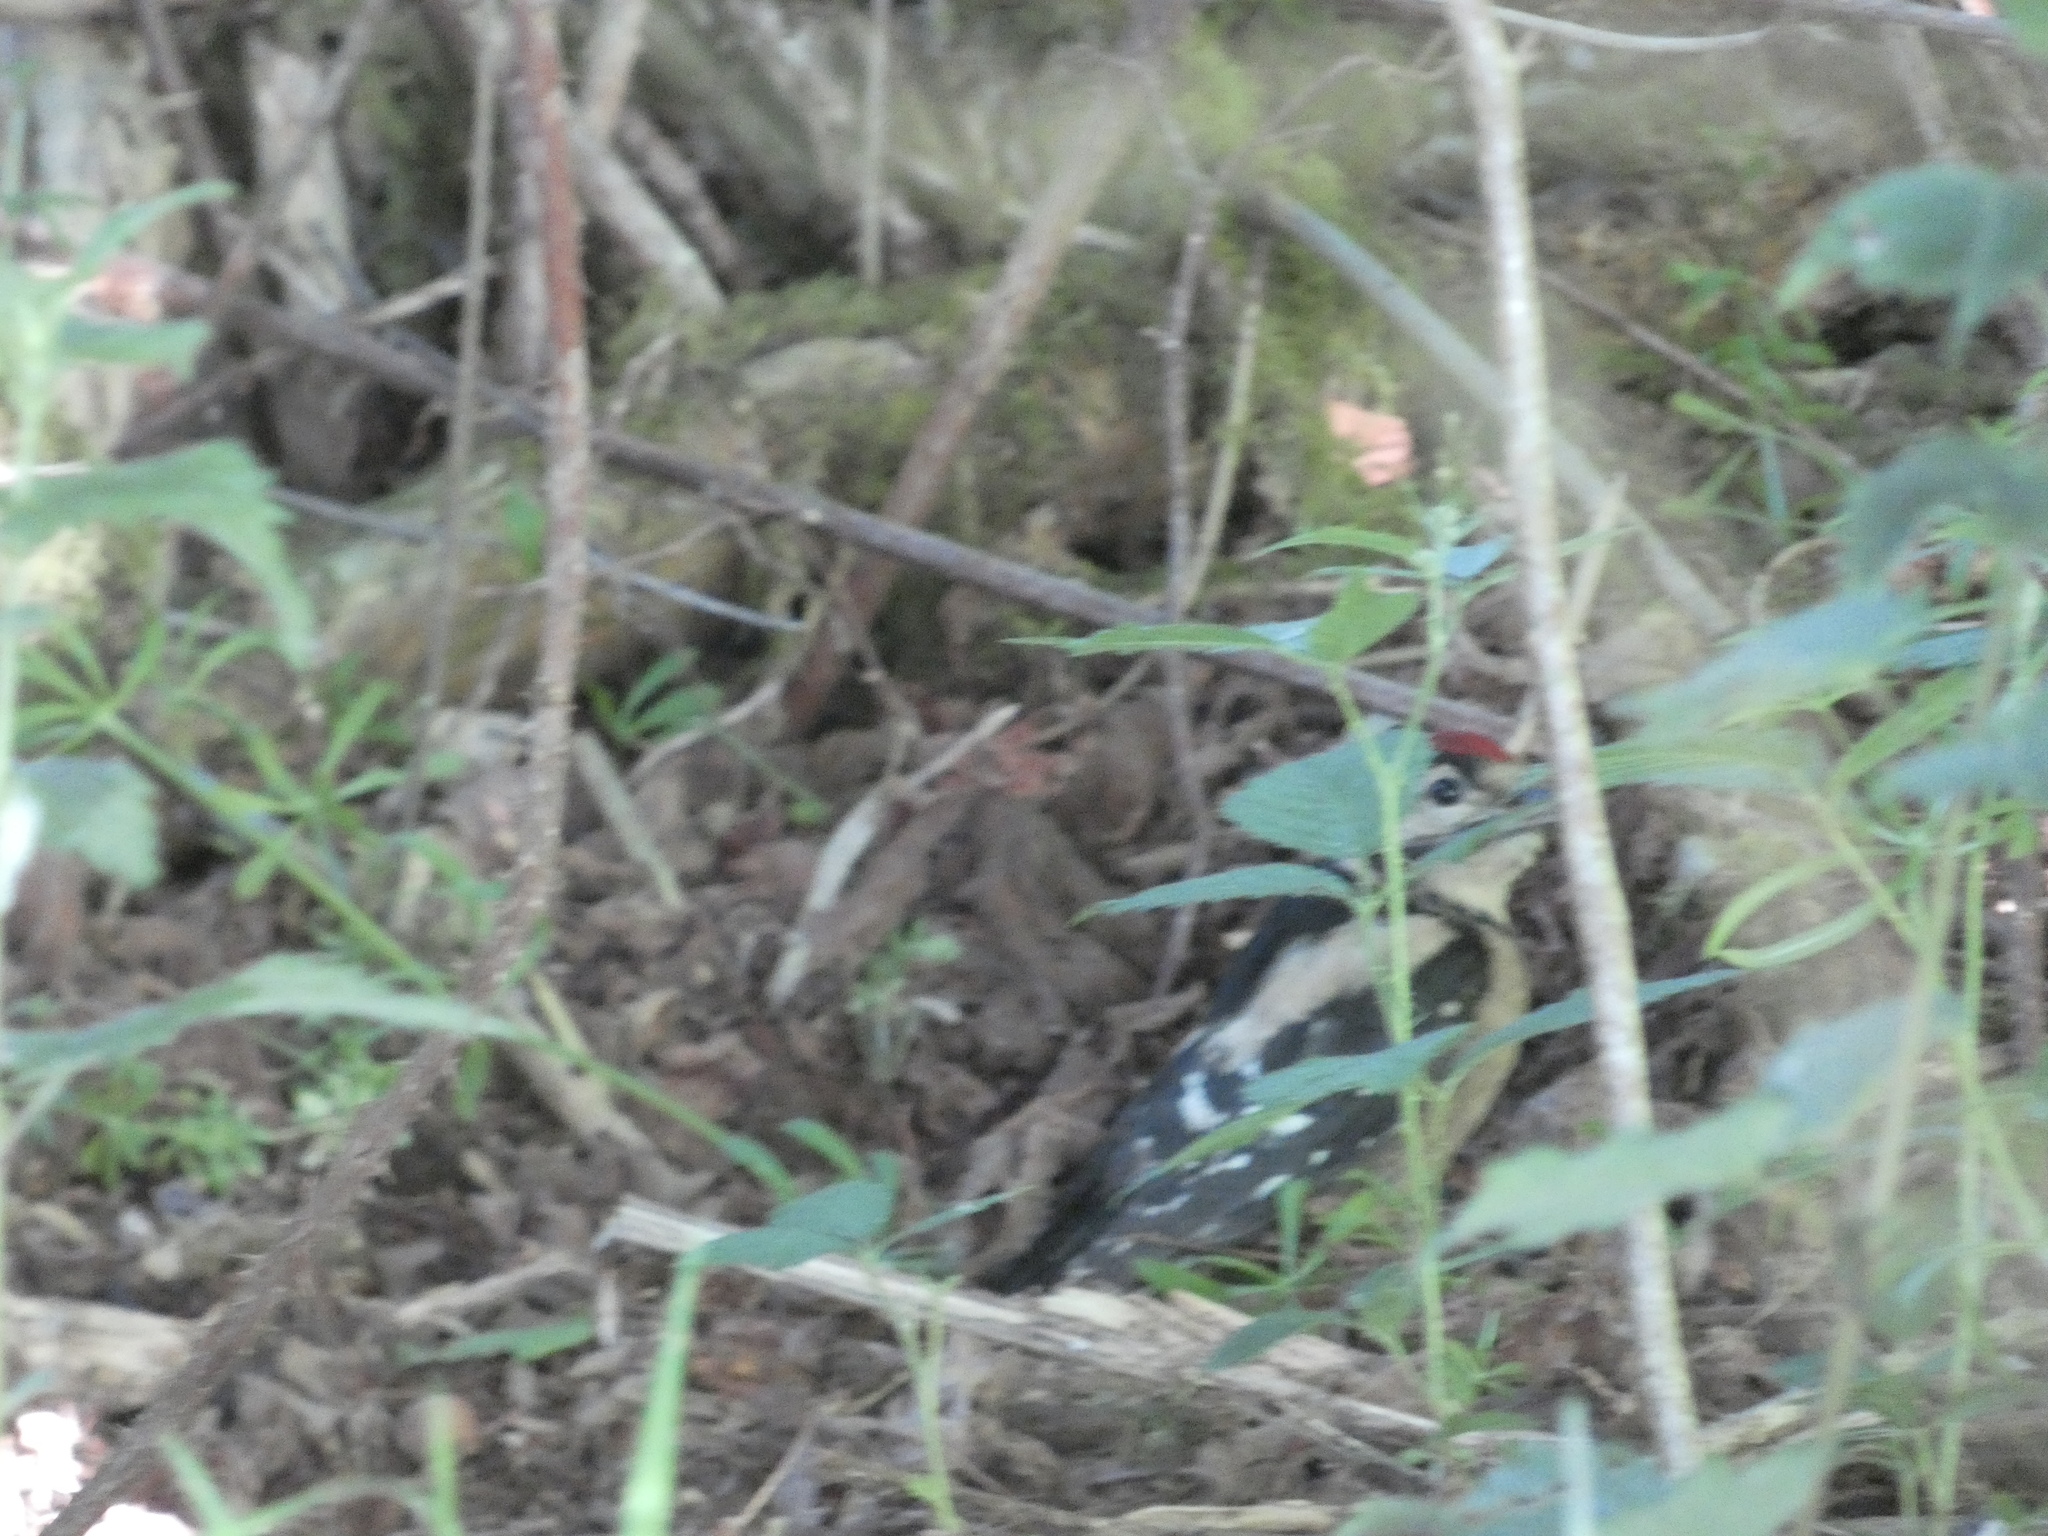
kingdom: Animalia
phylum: Chordata
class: Aves
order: Piciformes
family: Picidae
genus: Dendrocopos
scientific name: Dendrocopos major
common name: Great spotted woodpecker
